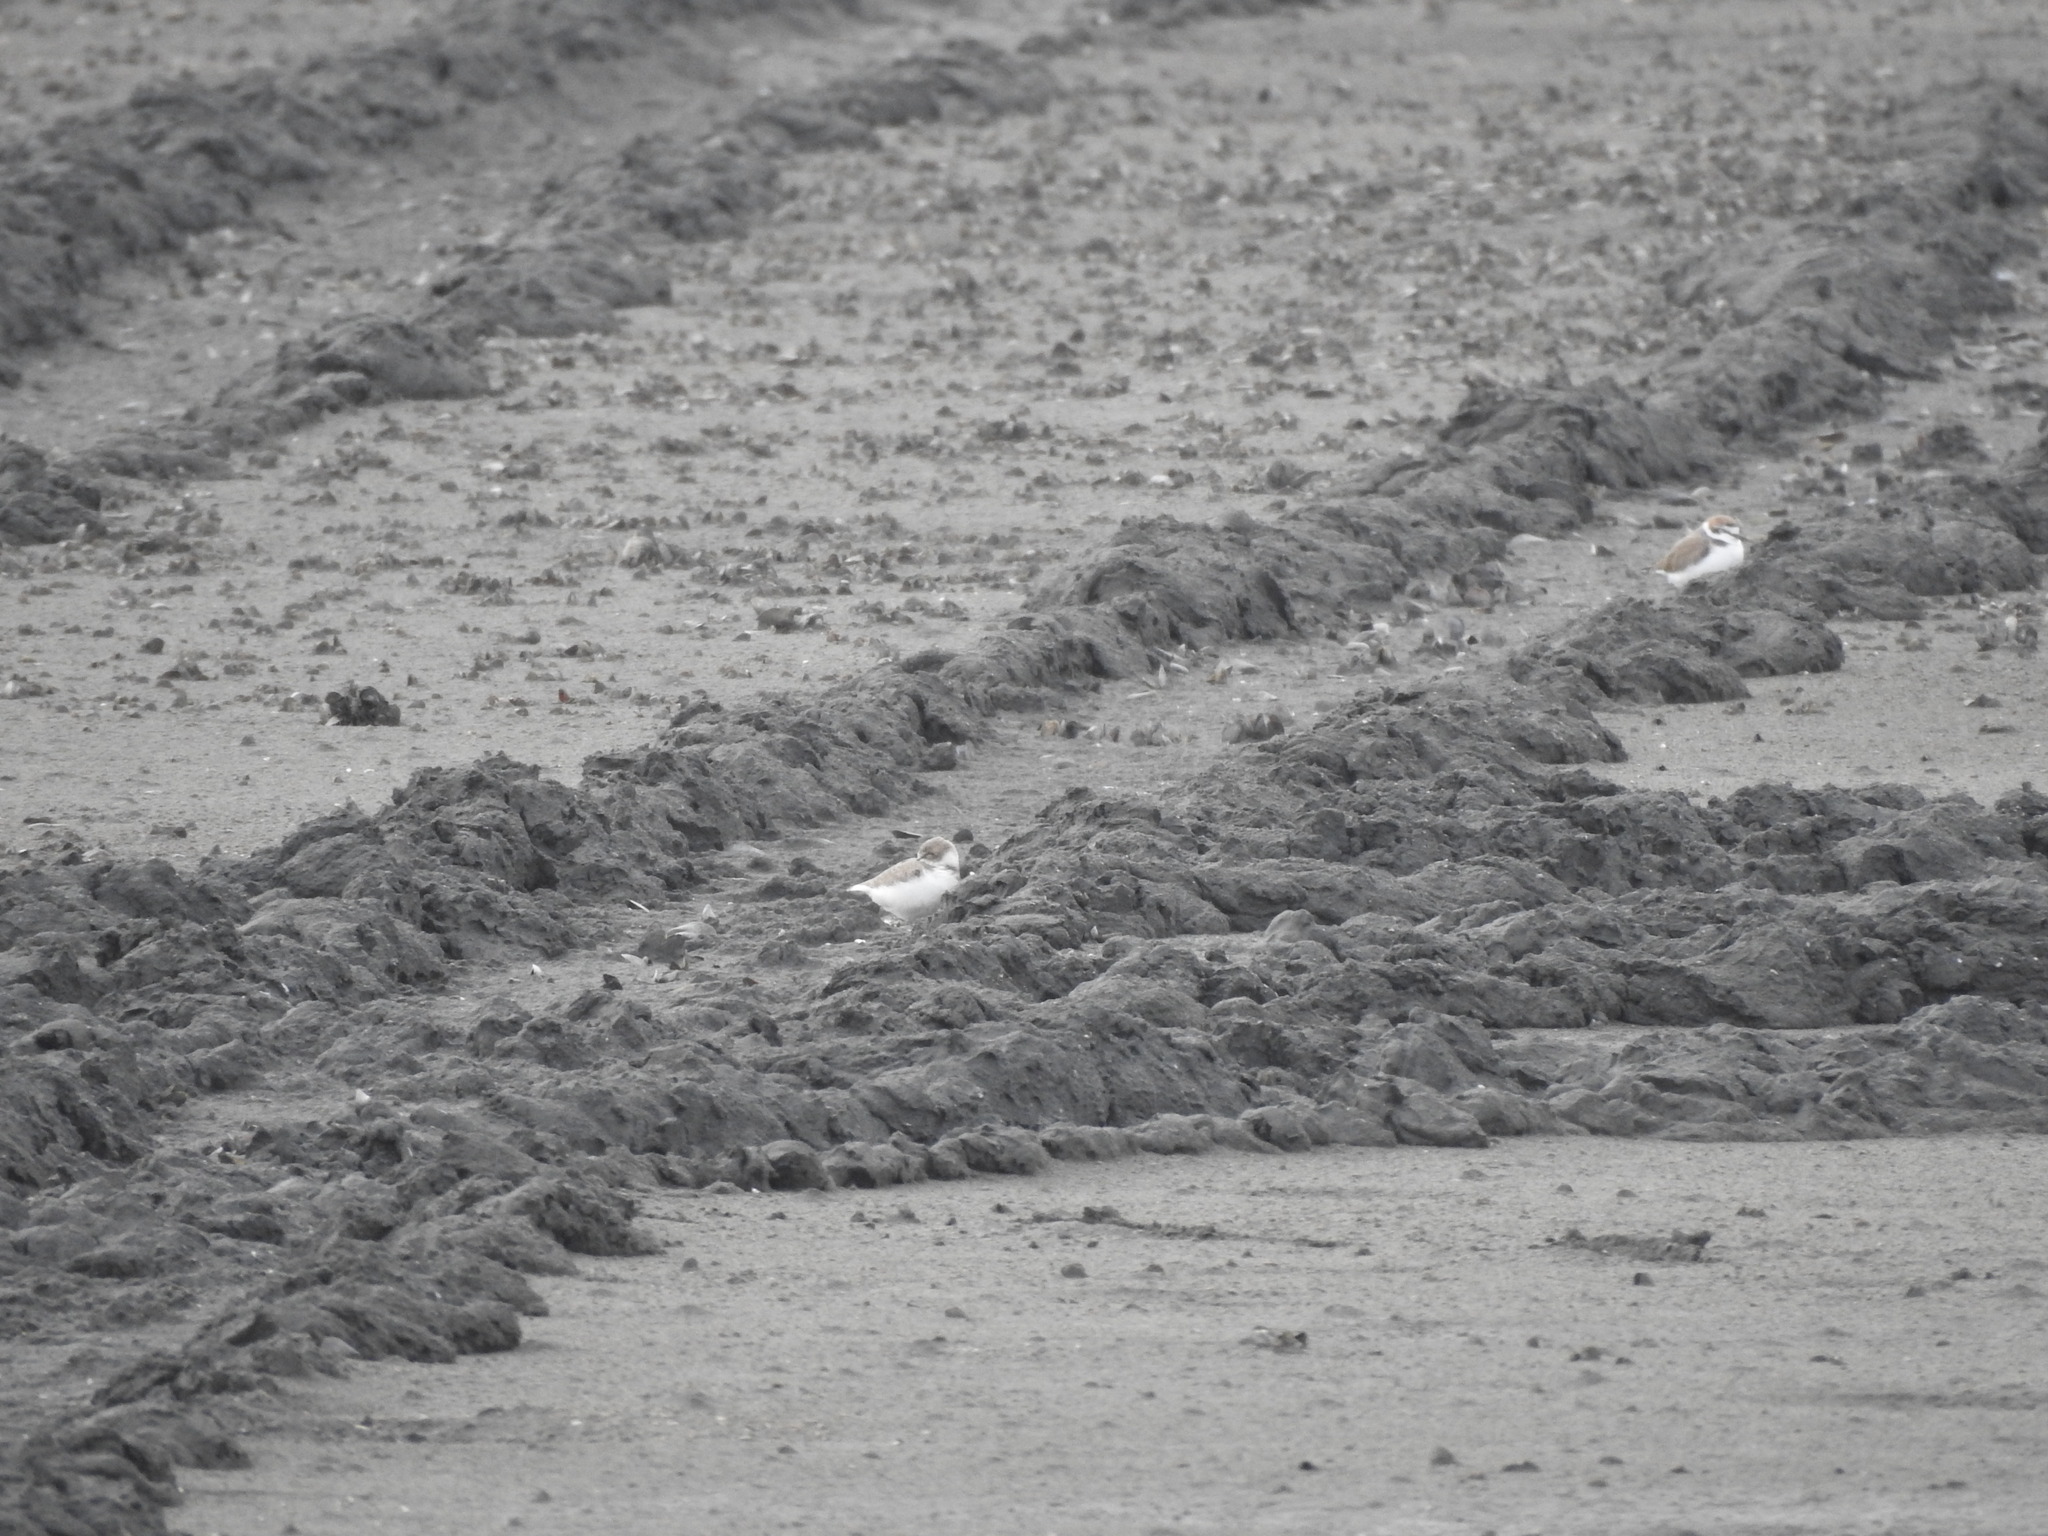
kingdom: Animalia
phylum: Chordata
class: Aves
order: Charadriiformes
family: Charadriidae
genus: Charadrius
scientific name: Charadrius alexandrinus
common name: Kentish plover
